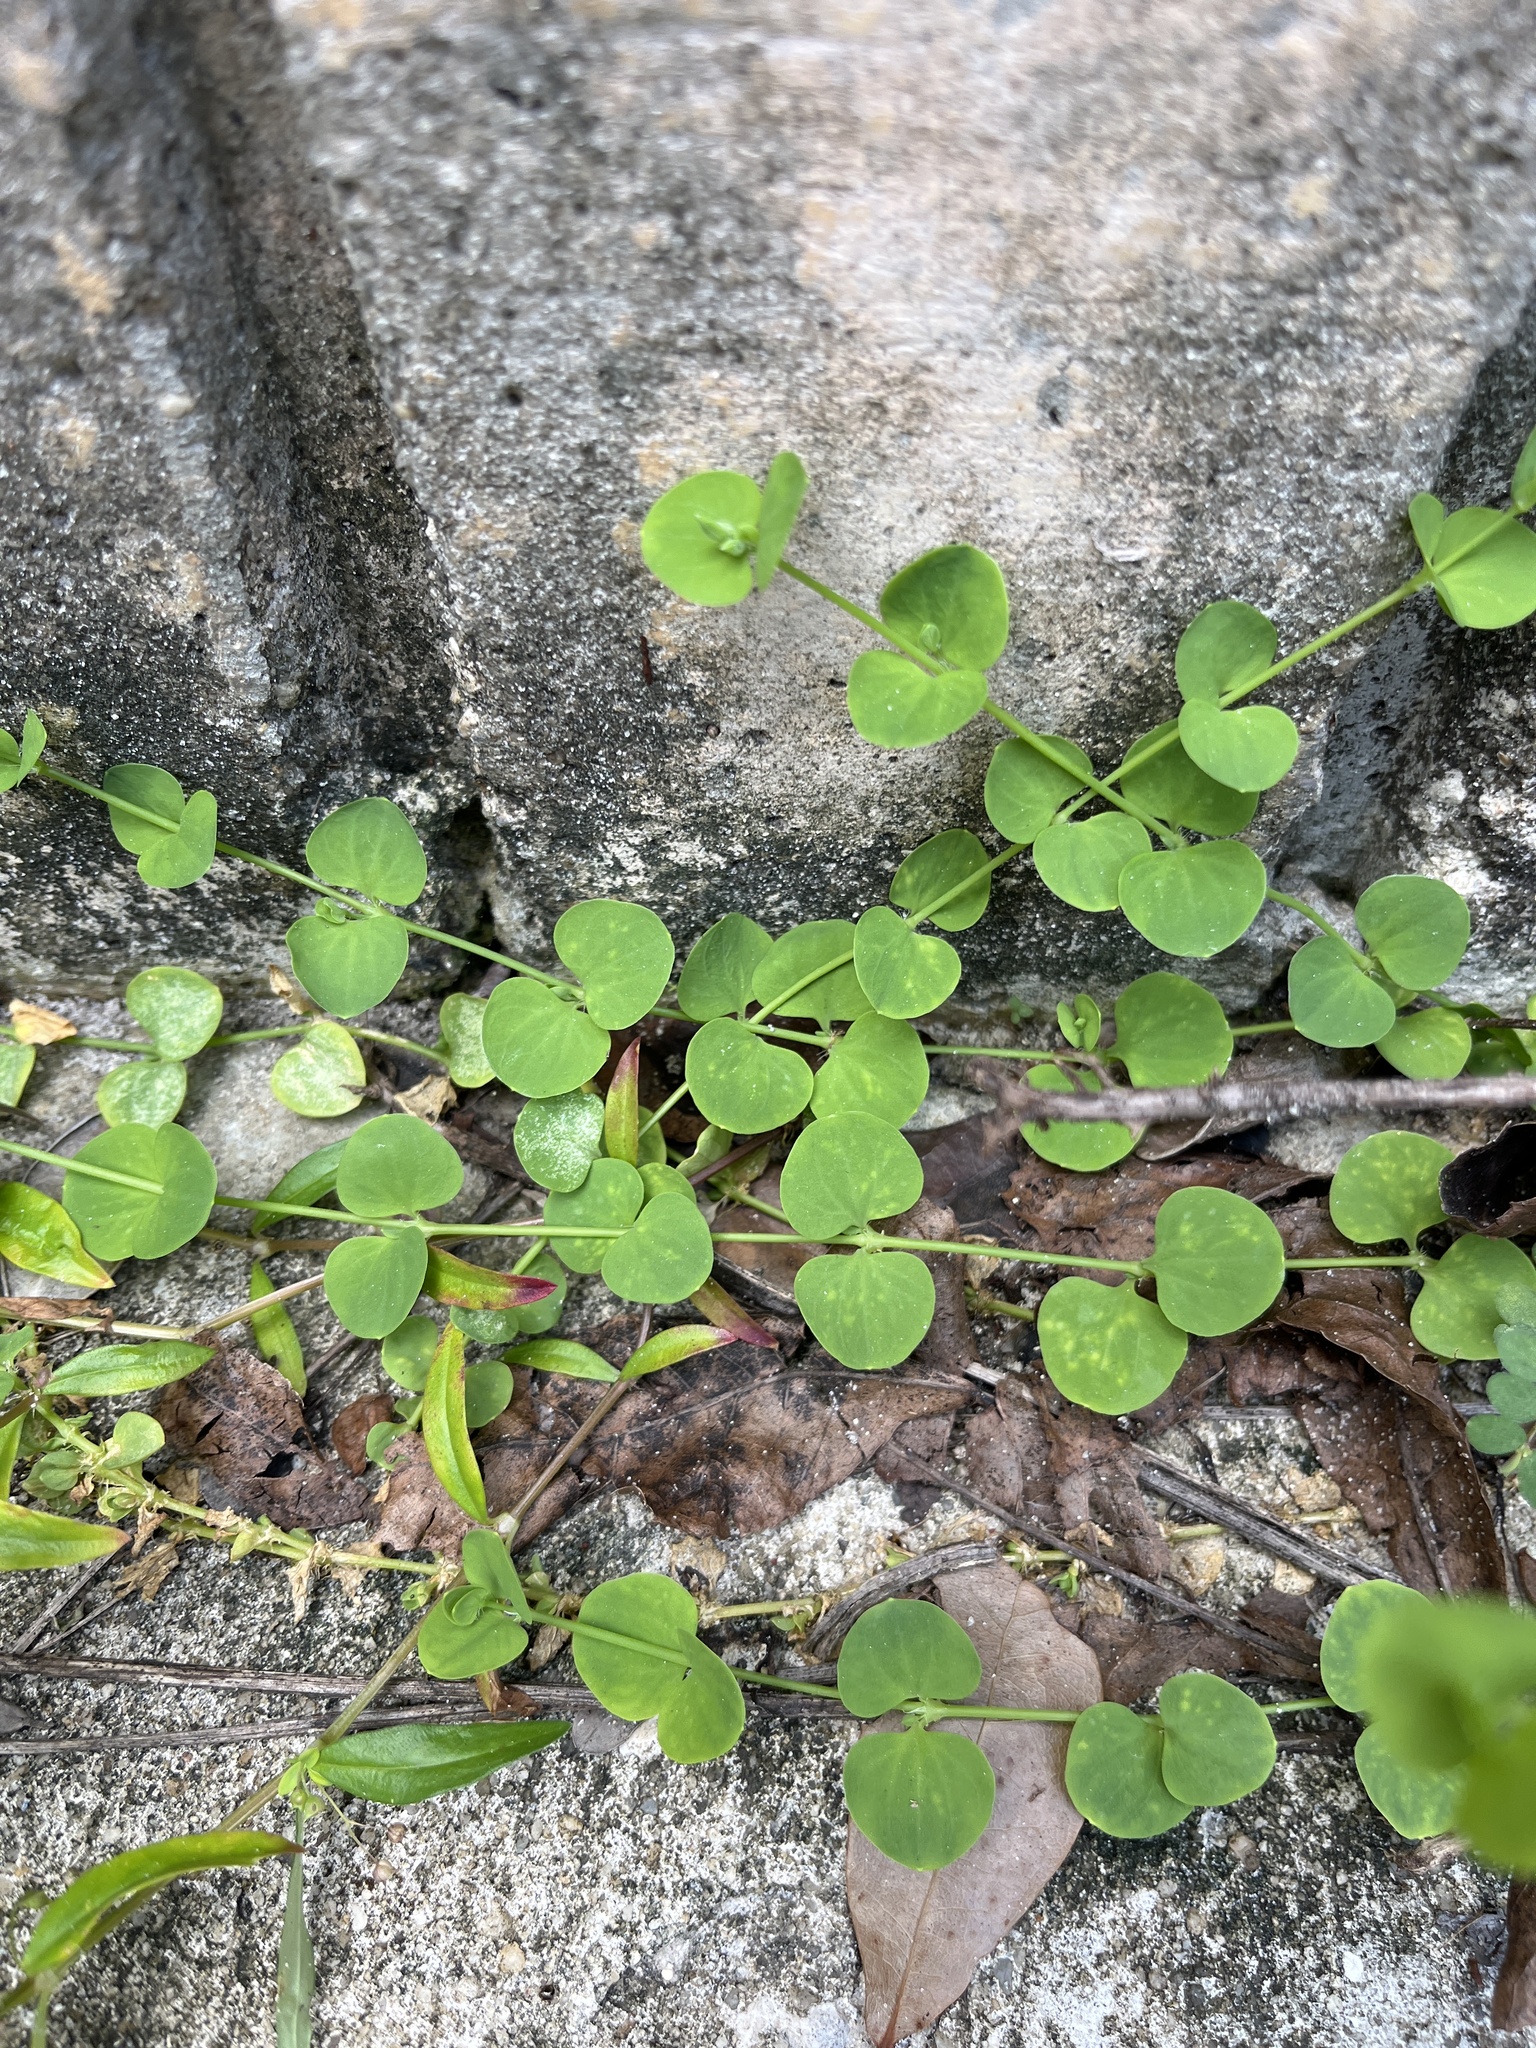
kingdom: Plantae
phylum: Tracheophyta
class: Magnoliopsida
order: Caryophyllales
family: Caryophyllaceae
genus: Drymaria
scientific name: Drymaria cordata
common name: Whitesnow
